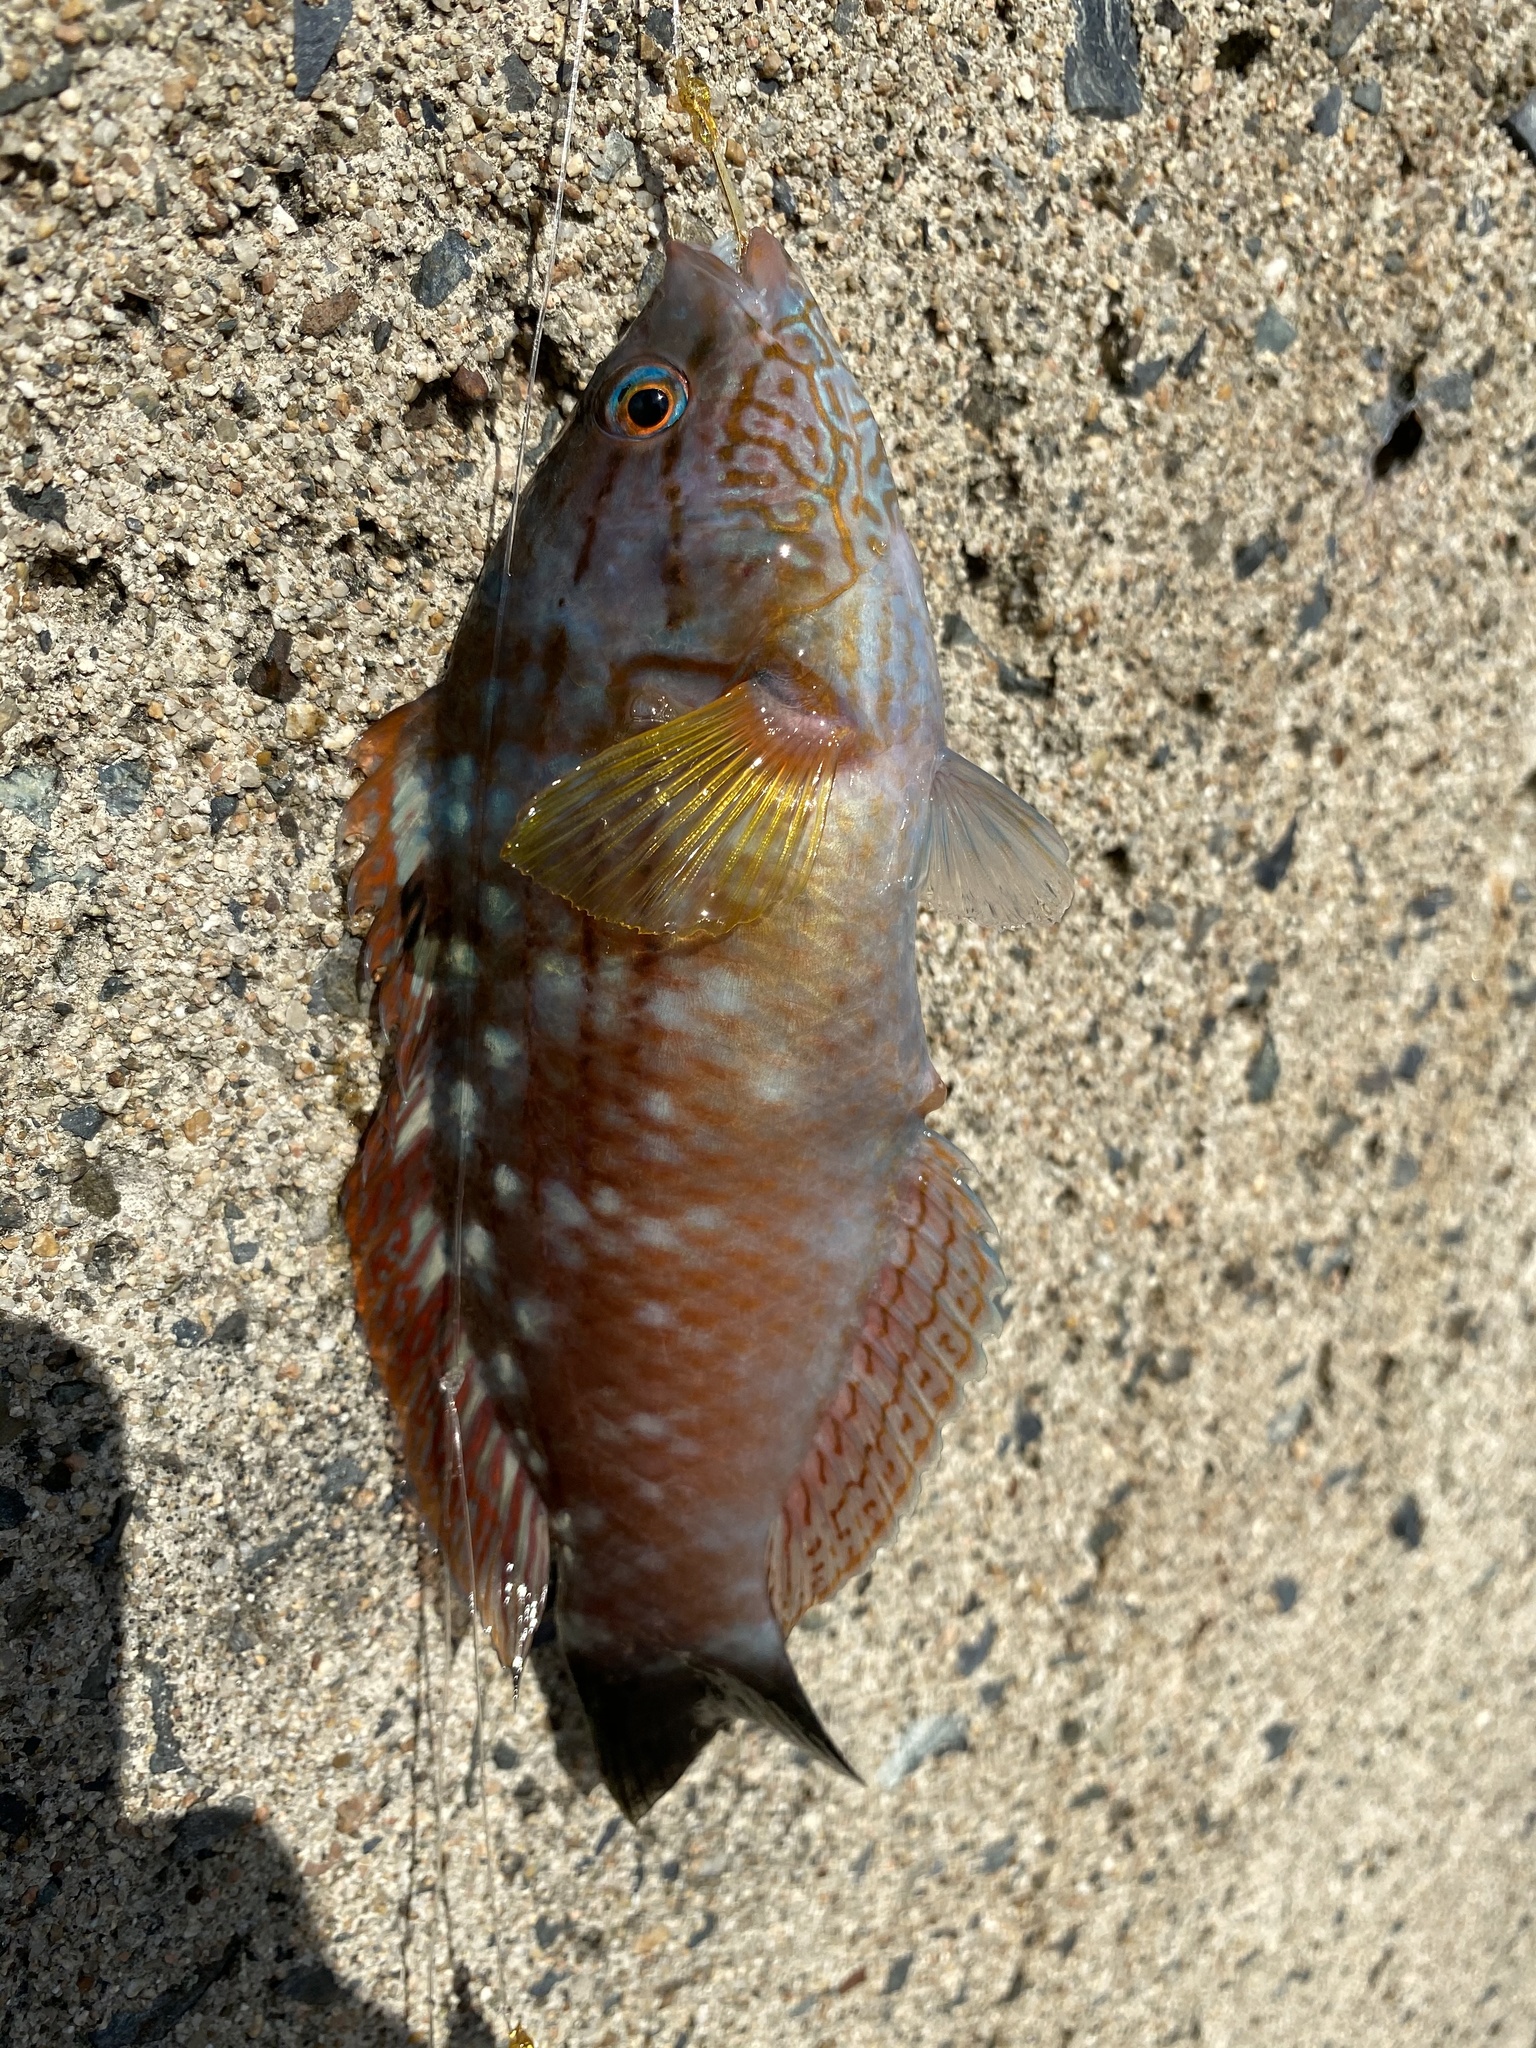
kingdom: Animalia
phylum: Chordata
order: Perciformes
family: Labridae
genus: Pseudolabrus
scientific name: Pseudolabrus sieboldi
